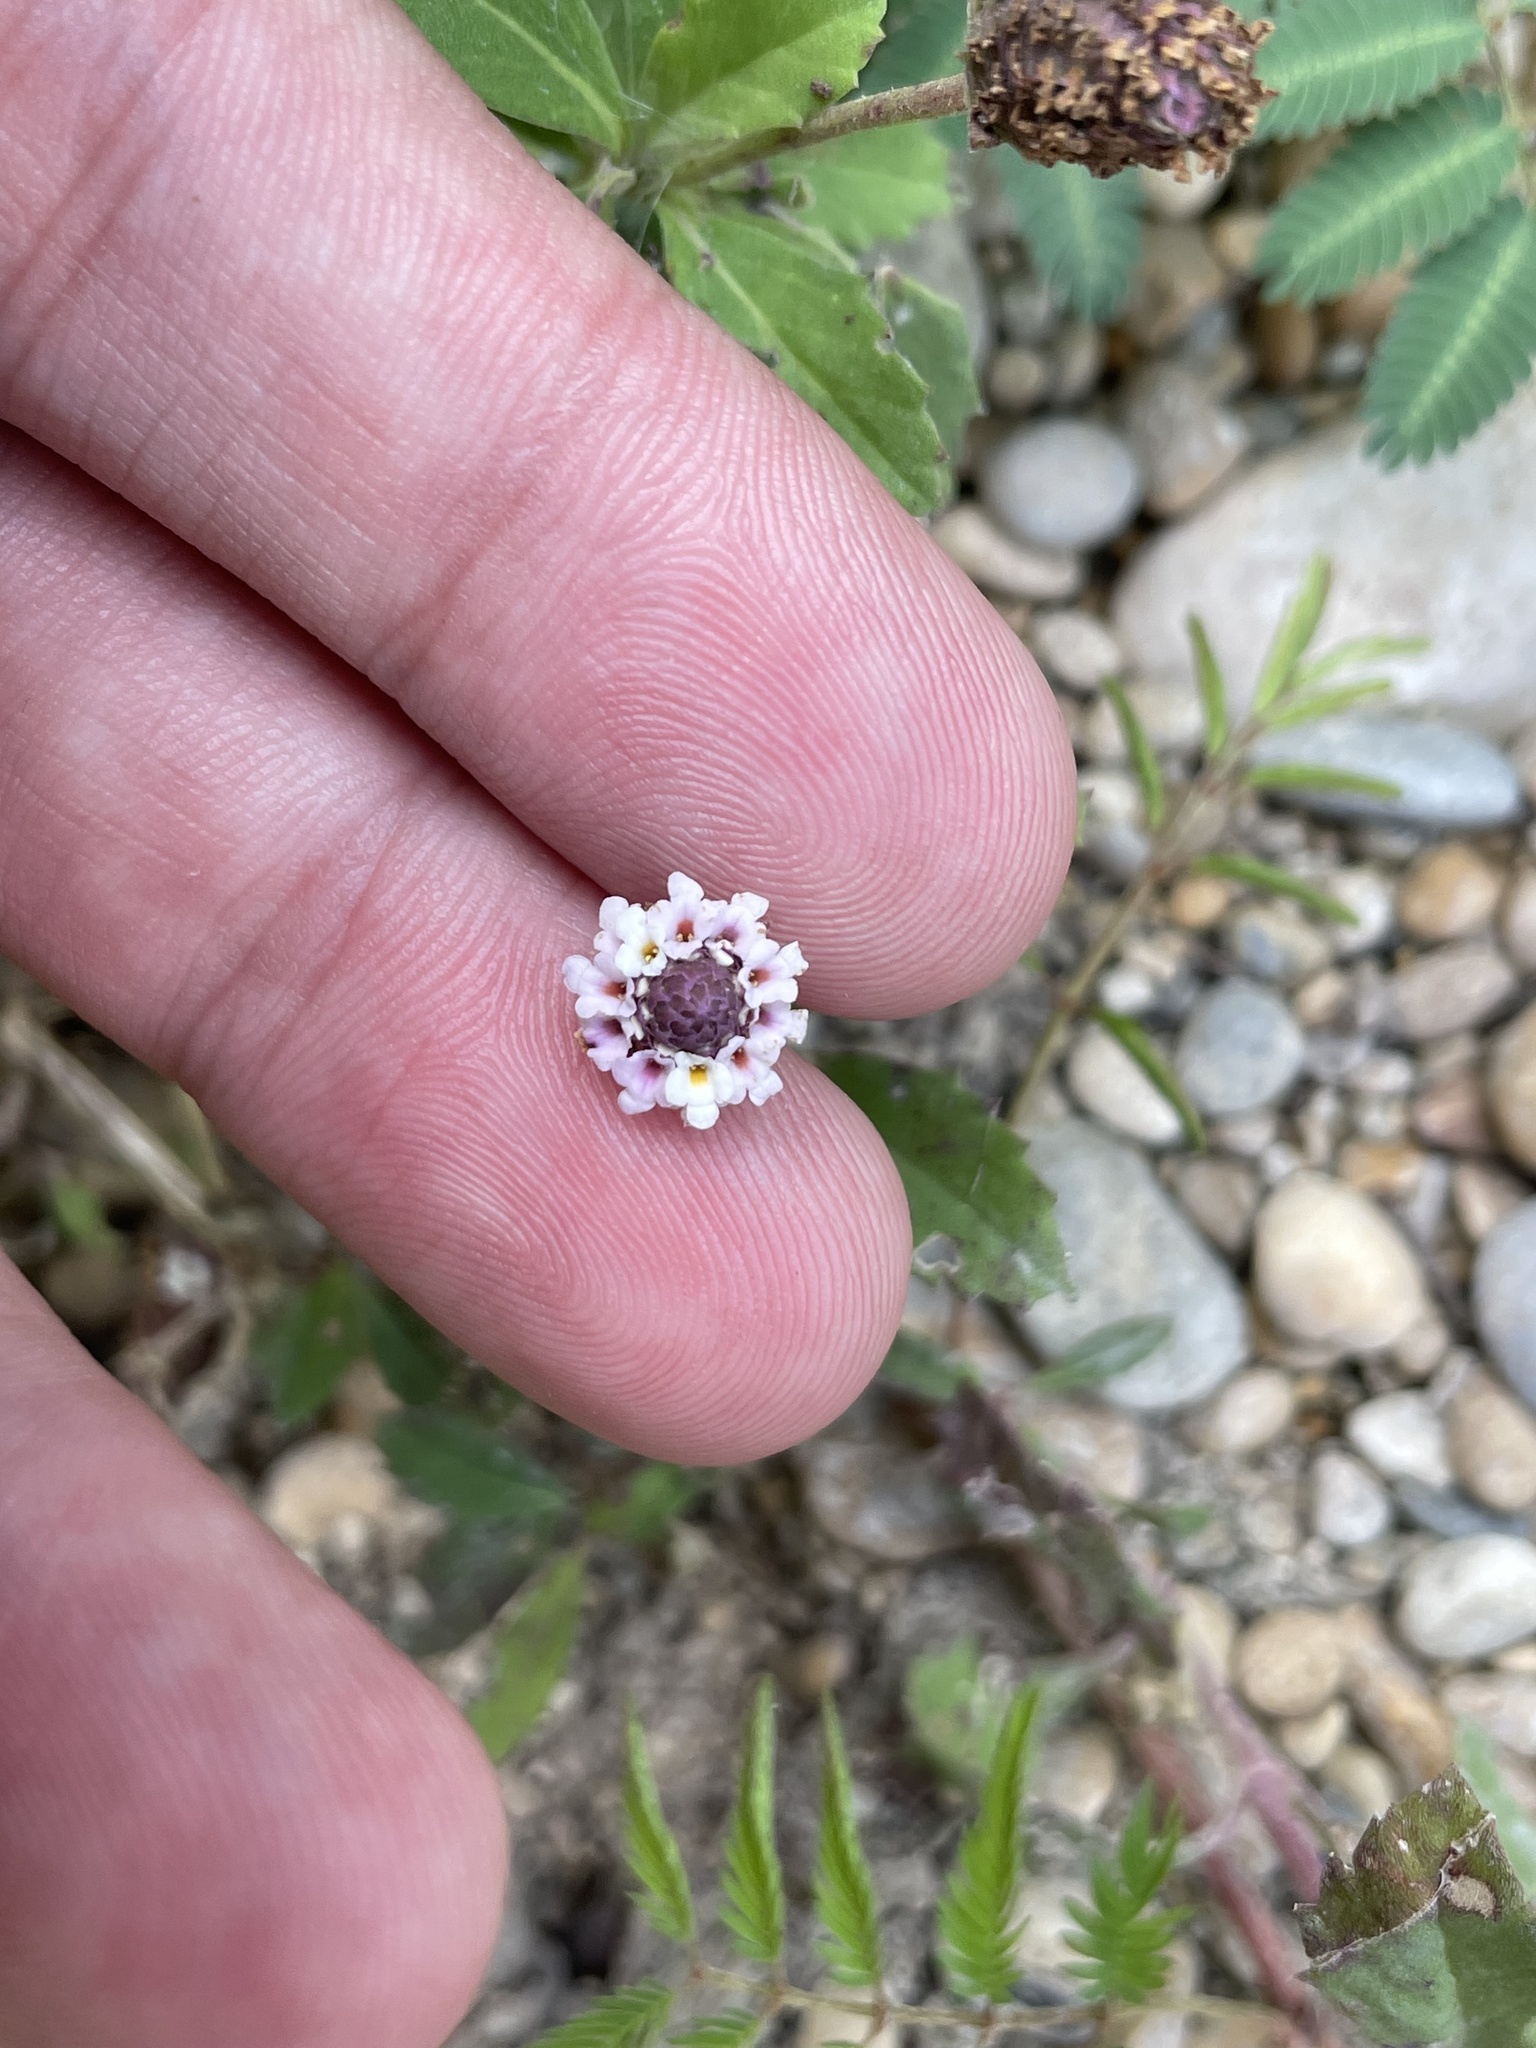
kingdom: Plantae
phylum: Tracheophyta
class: Magnoliopsida
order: Lamiales
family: Verbenaceae
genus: Phyla
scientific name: Phyla nodiflora
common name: Frogfruit
